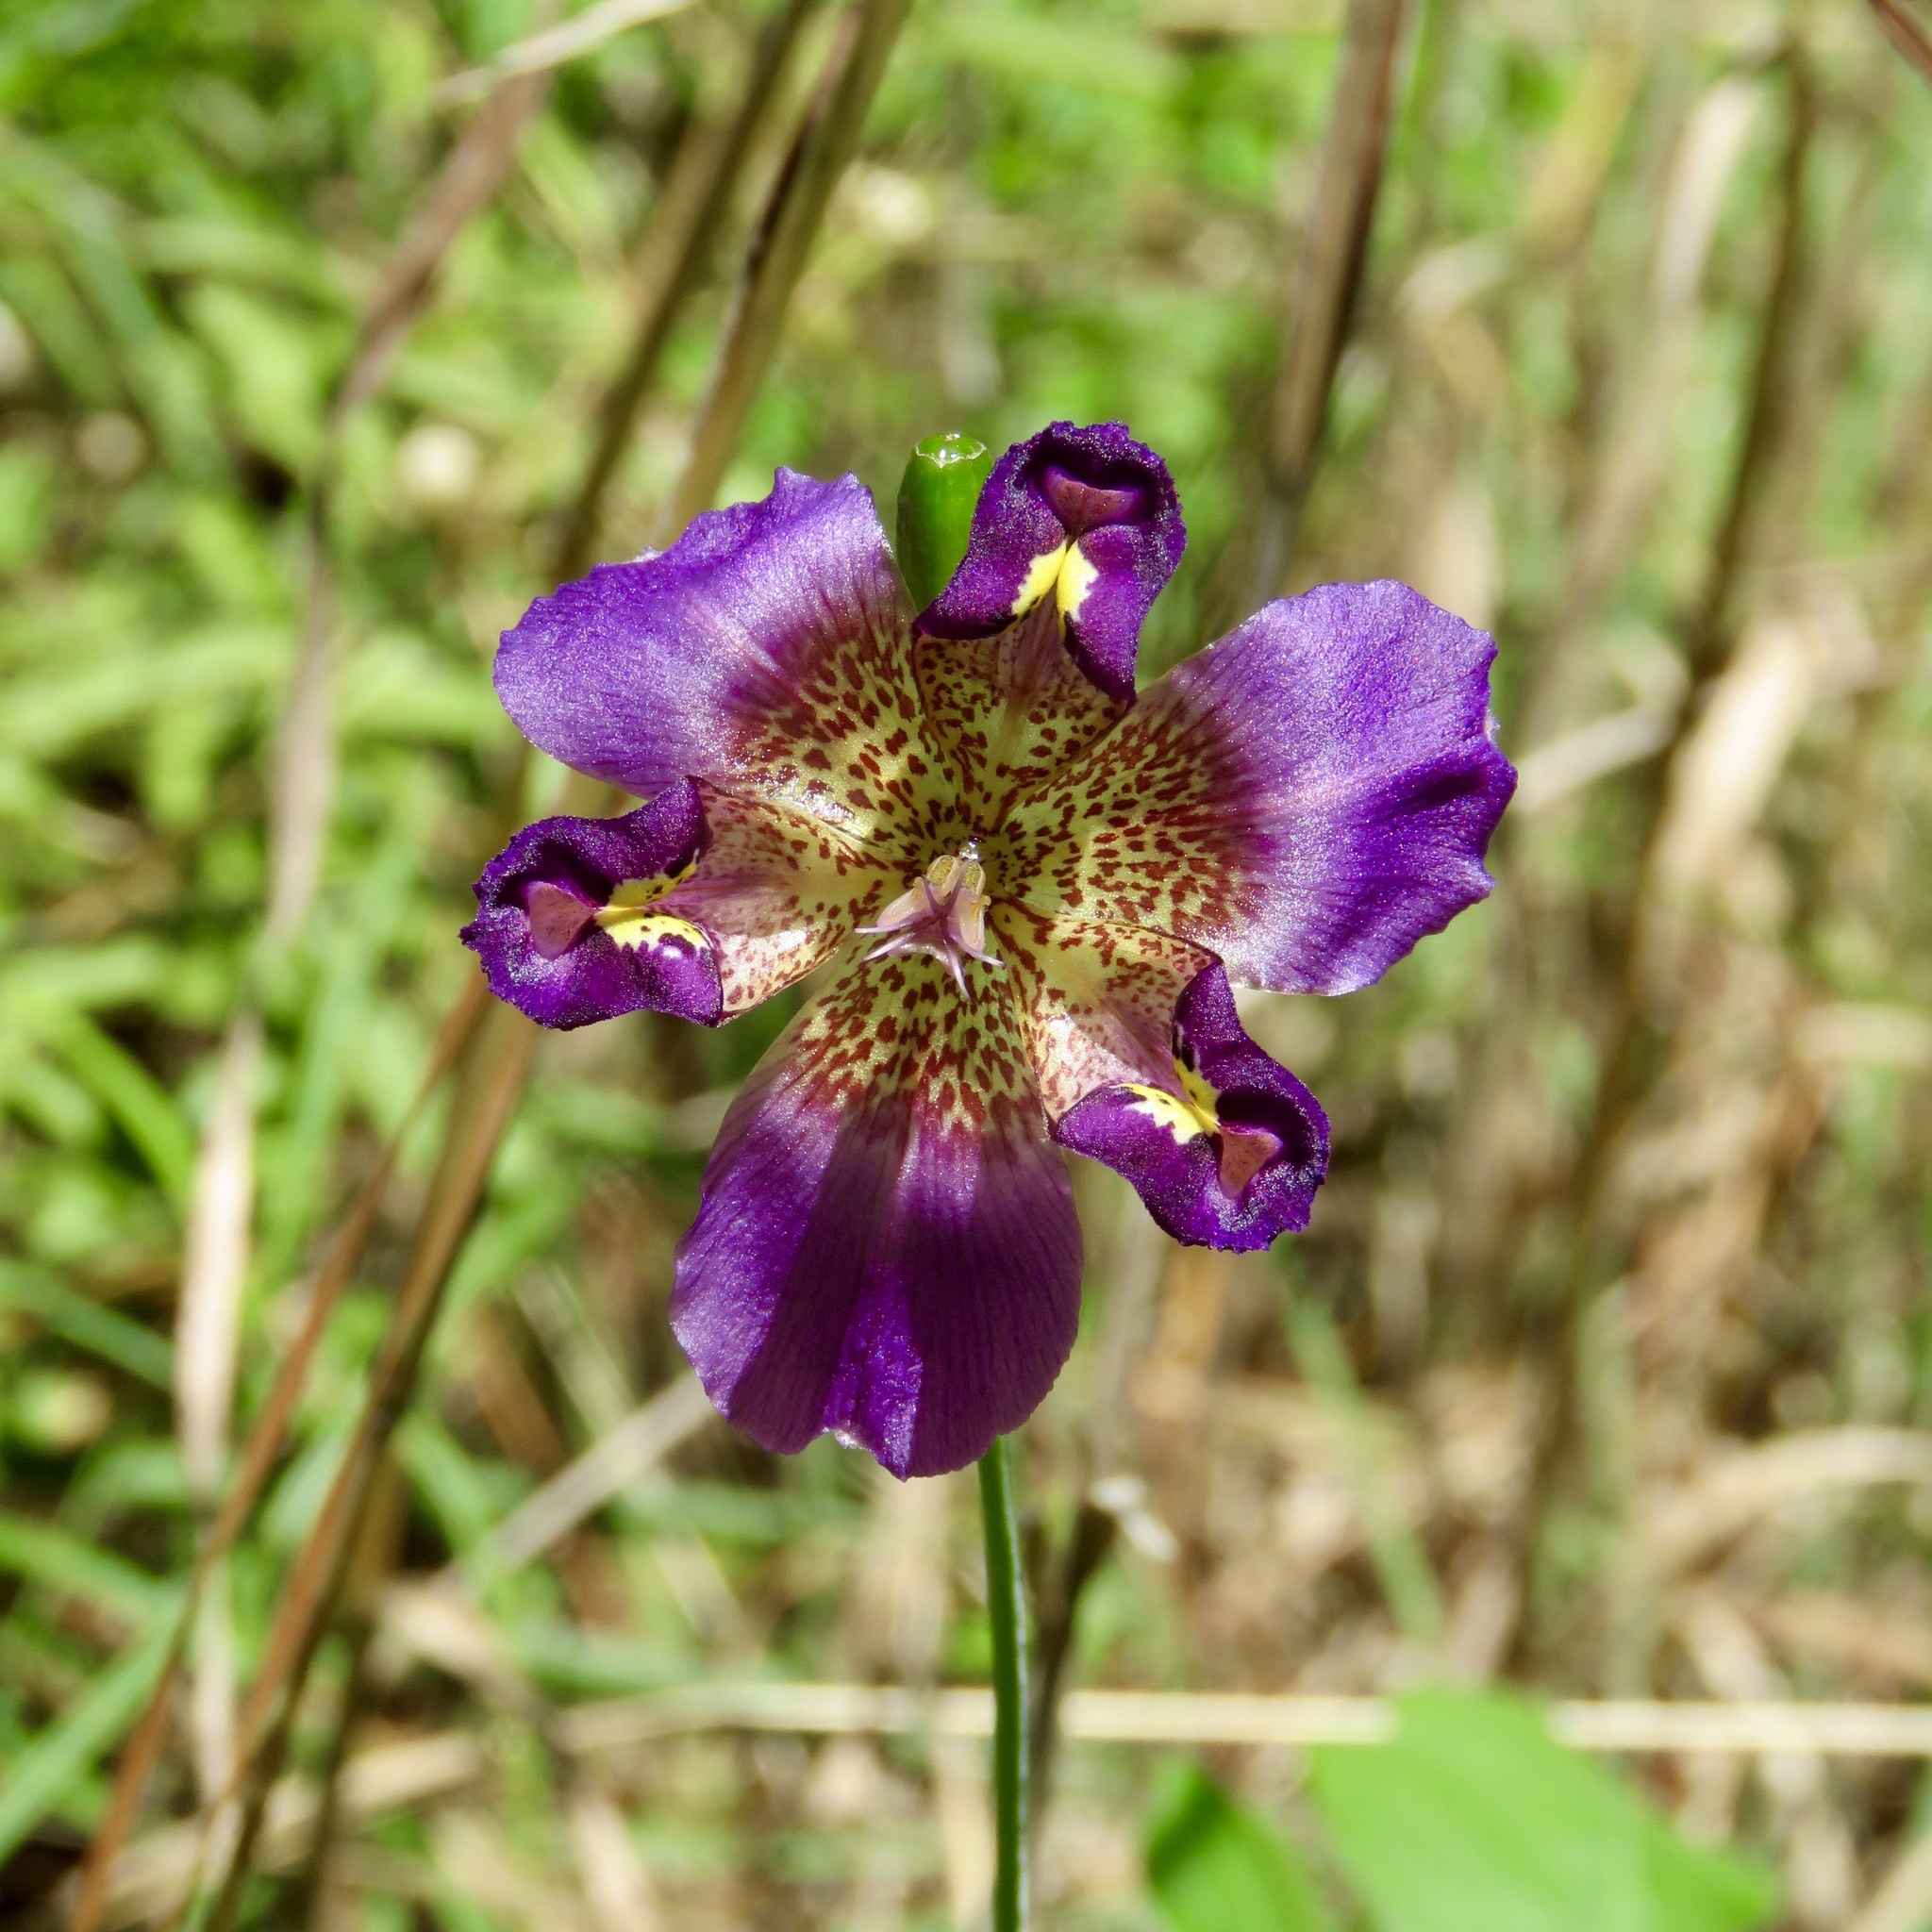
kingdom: Plantae
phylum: Tracheophyta
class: Liliopsida
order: Asparagales
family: Iridaceae
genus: Alophia
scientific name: Alophia drummondii
